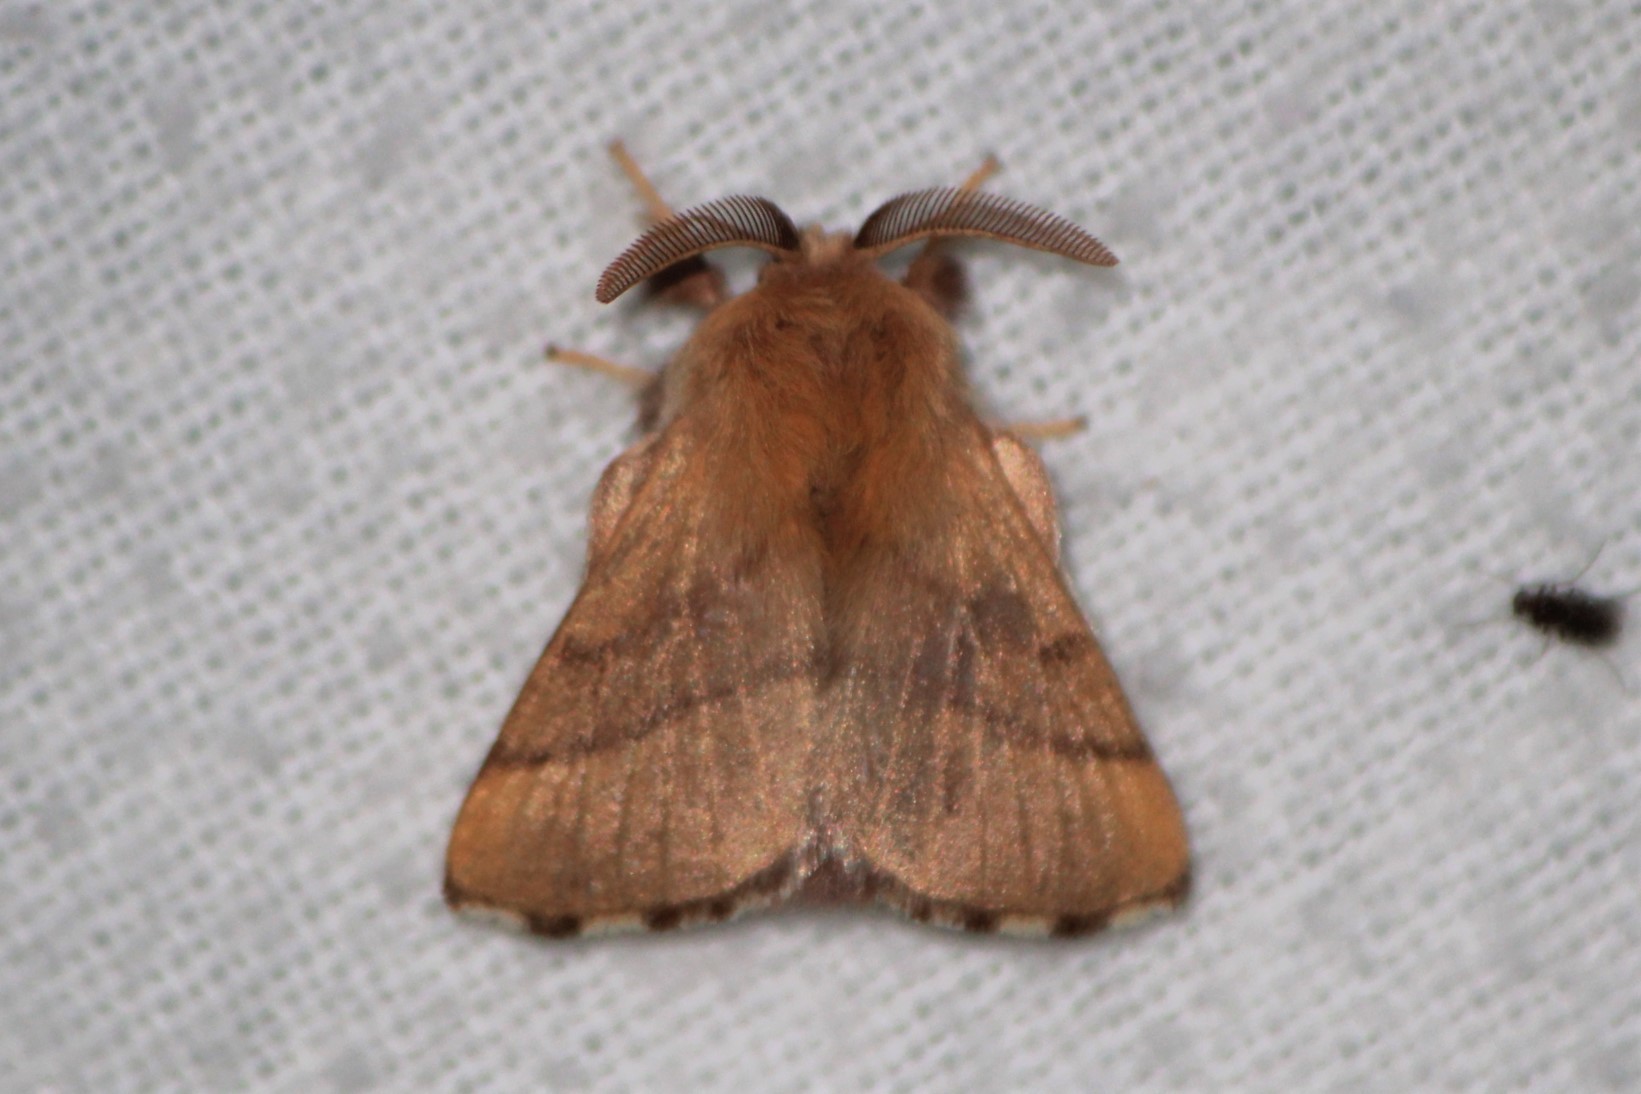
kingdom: Animalia
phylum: Arthropoda
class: Insecta
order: Lepidoptera
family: Lasiocampidae
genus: Malacosoma
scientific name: Malacosoma disstria
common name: Forest tent caterpillar
